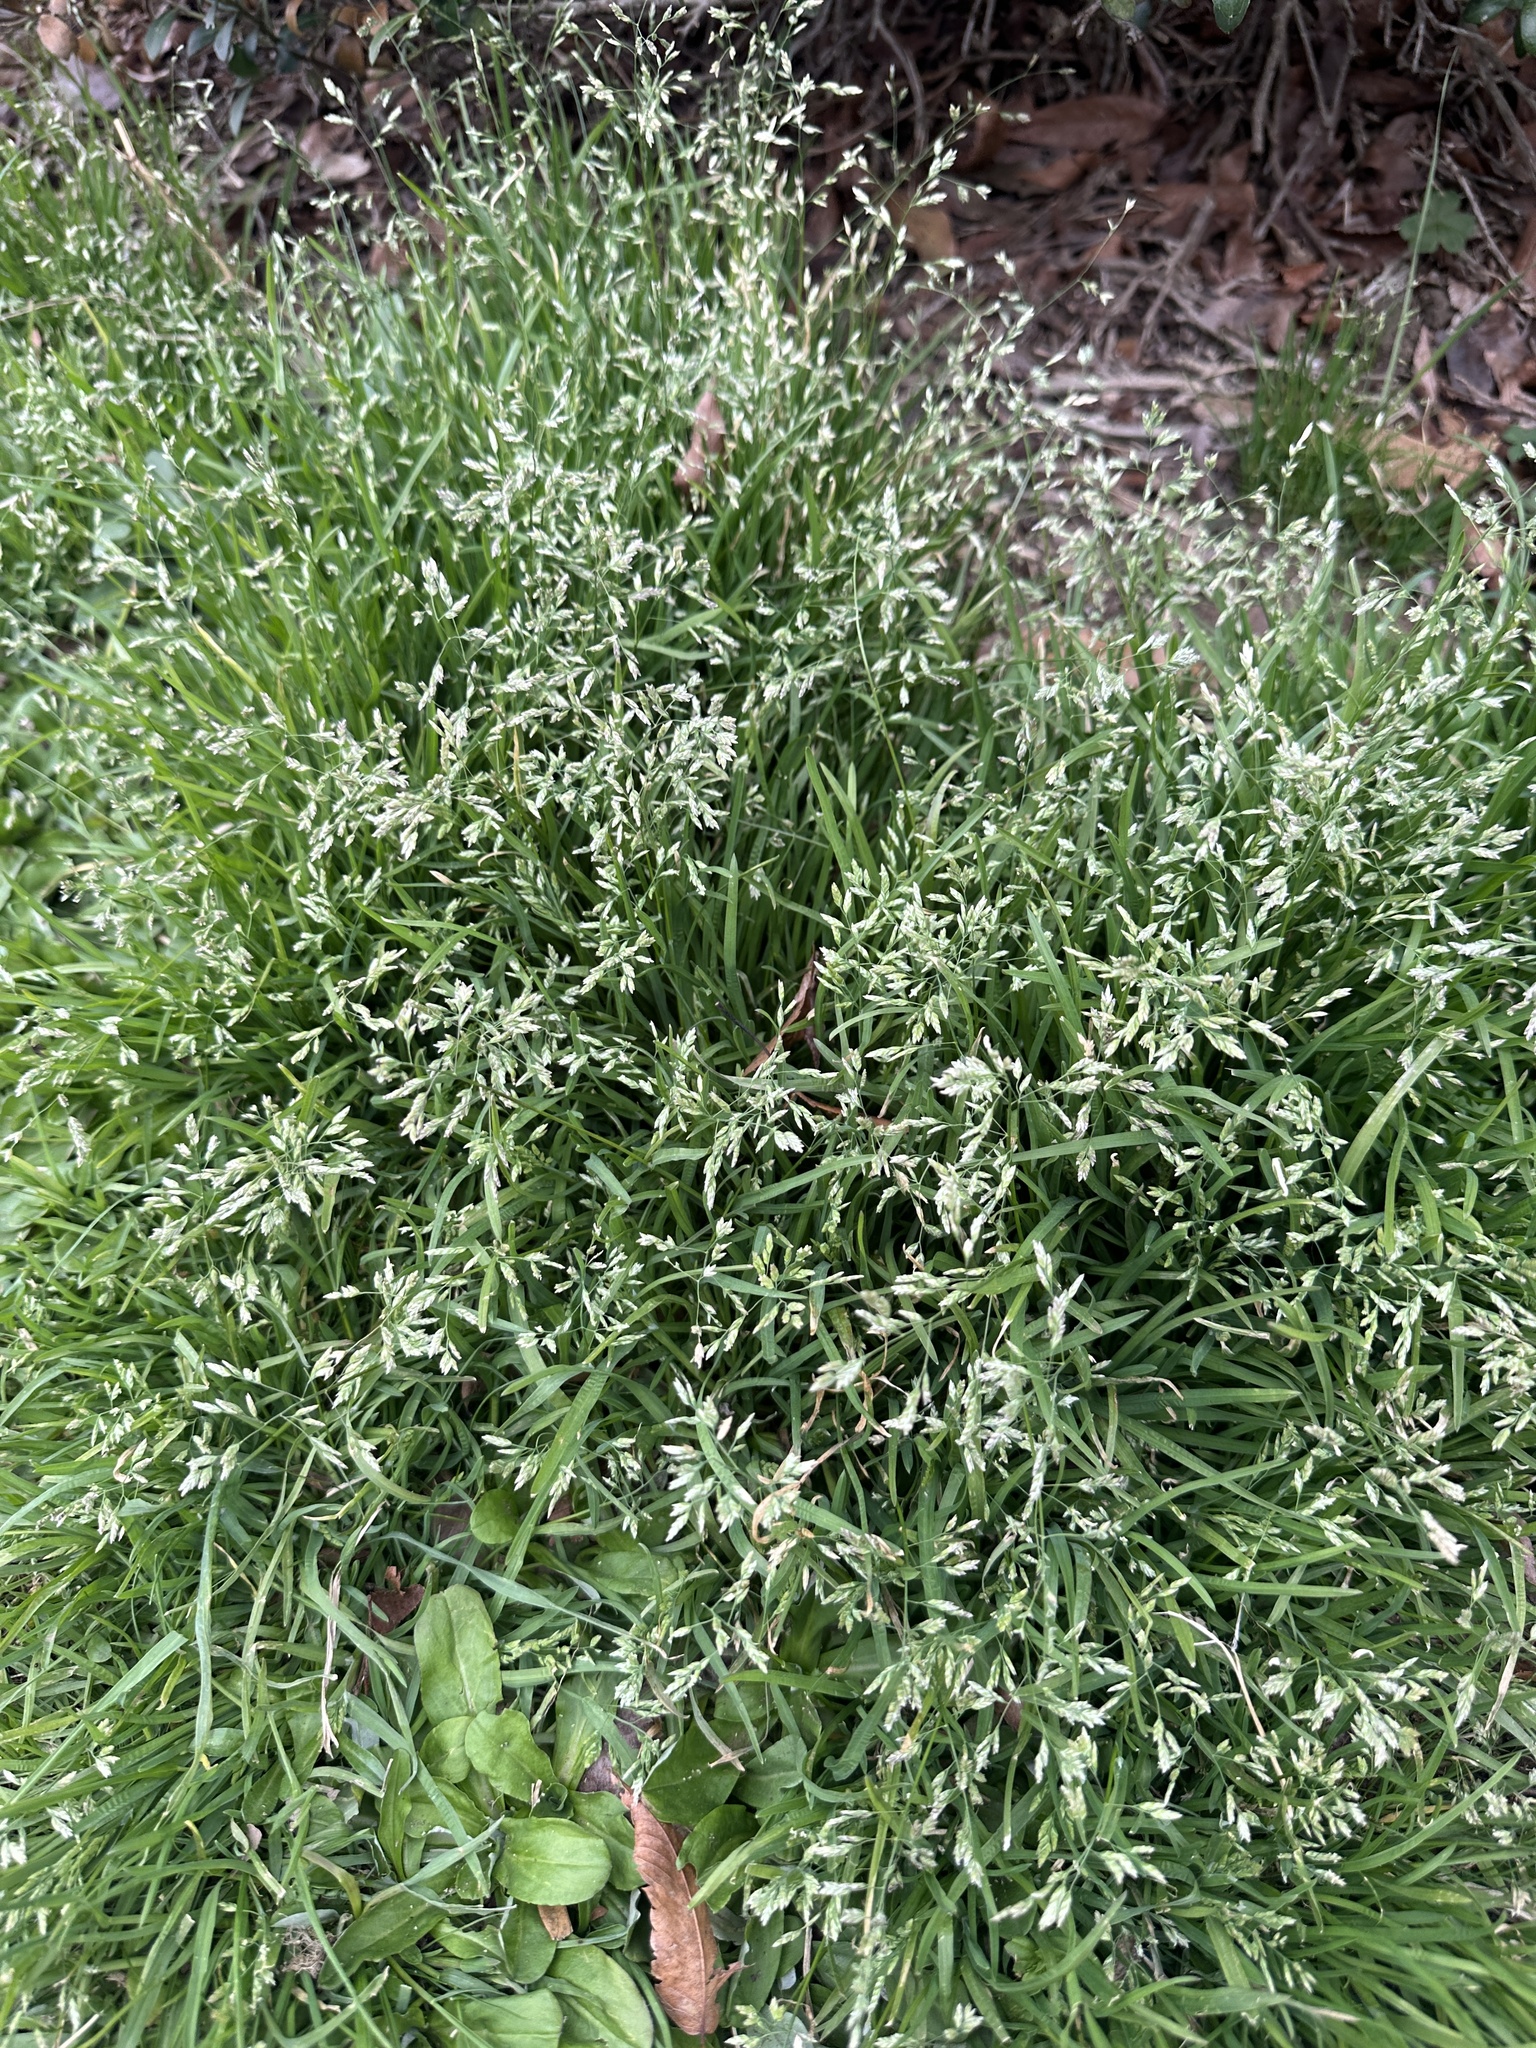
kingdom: Plantae
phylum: Tracheophyta
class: Liliopsida
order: Poales
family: Poaceae
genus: Poa
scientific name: Poa annua
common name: Annual bluegrass
